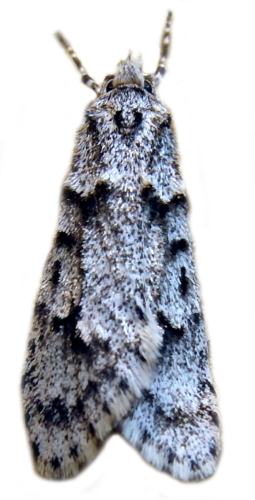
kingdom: Animalia
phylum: Arthropoda
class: Insecta
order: Lepidoptera
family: Lypusidae
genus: Diurnea
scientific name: Diurnea fagella
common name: March tubic
